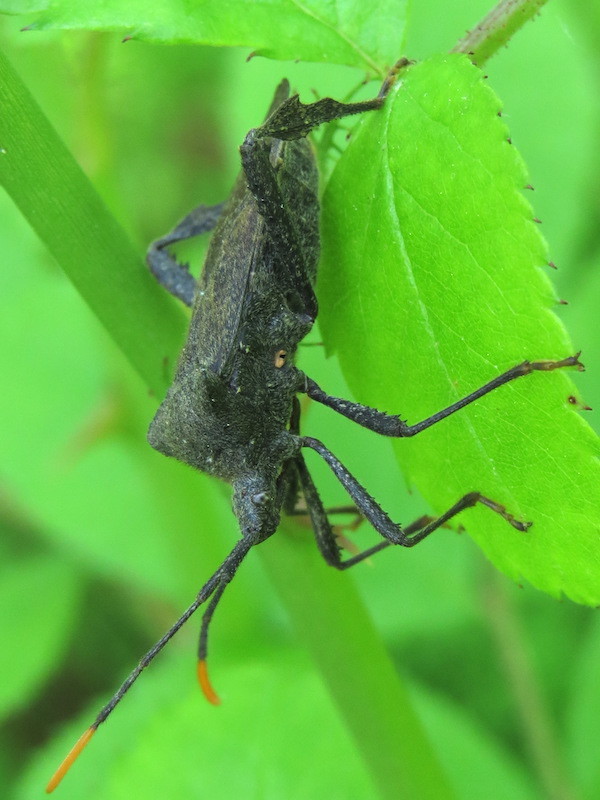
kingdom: Animalia
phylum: Arthropoda
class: Insecta
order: Hemiptera
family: Coreidae
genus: Acanthocephala
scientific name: Acanthocephala terminalis
